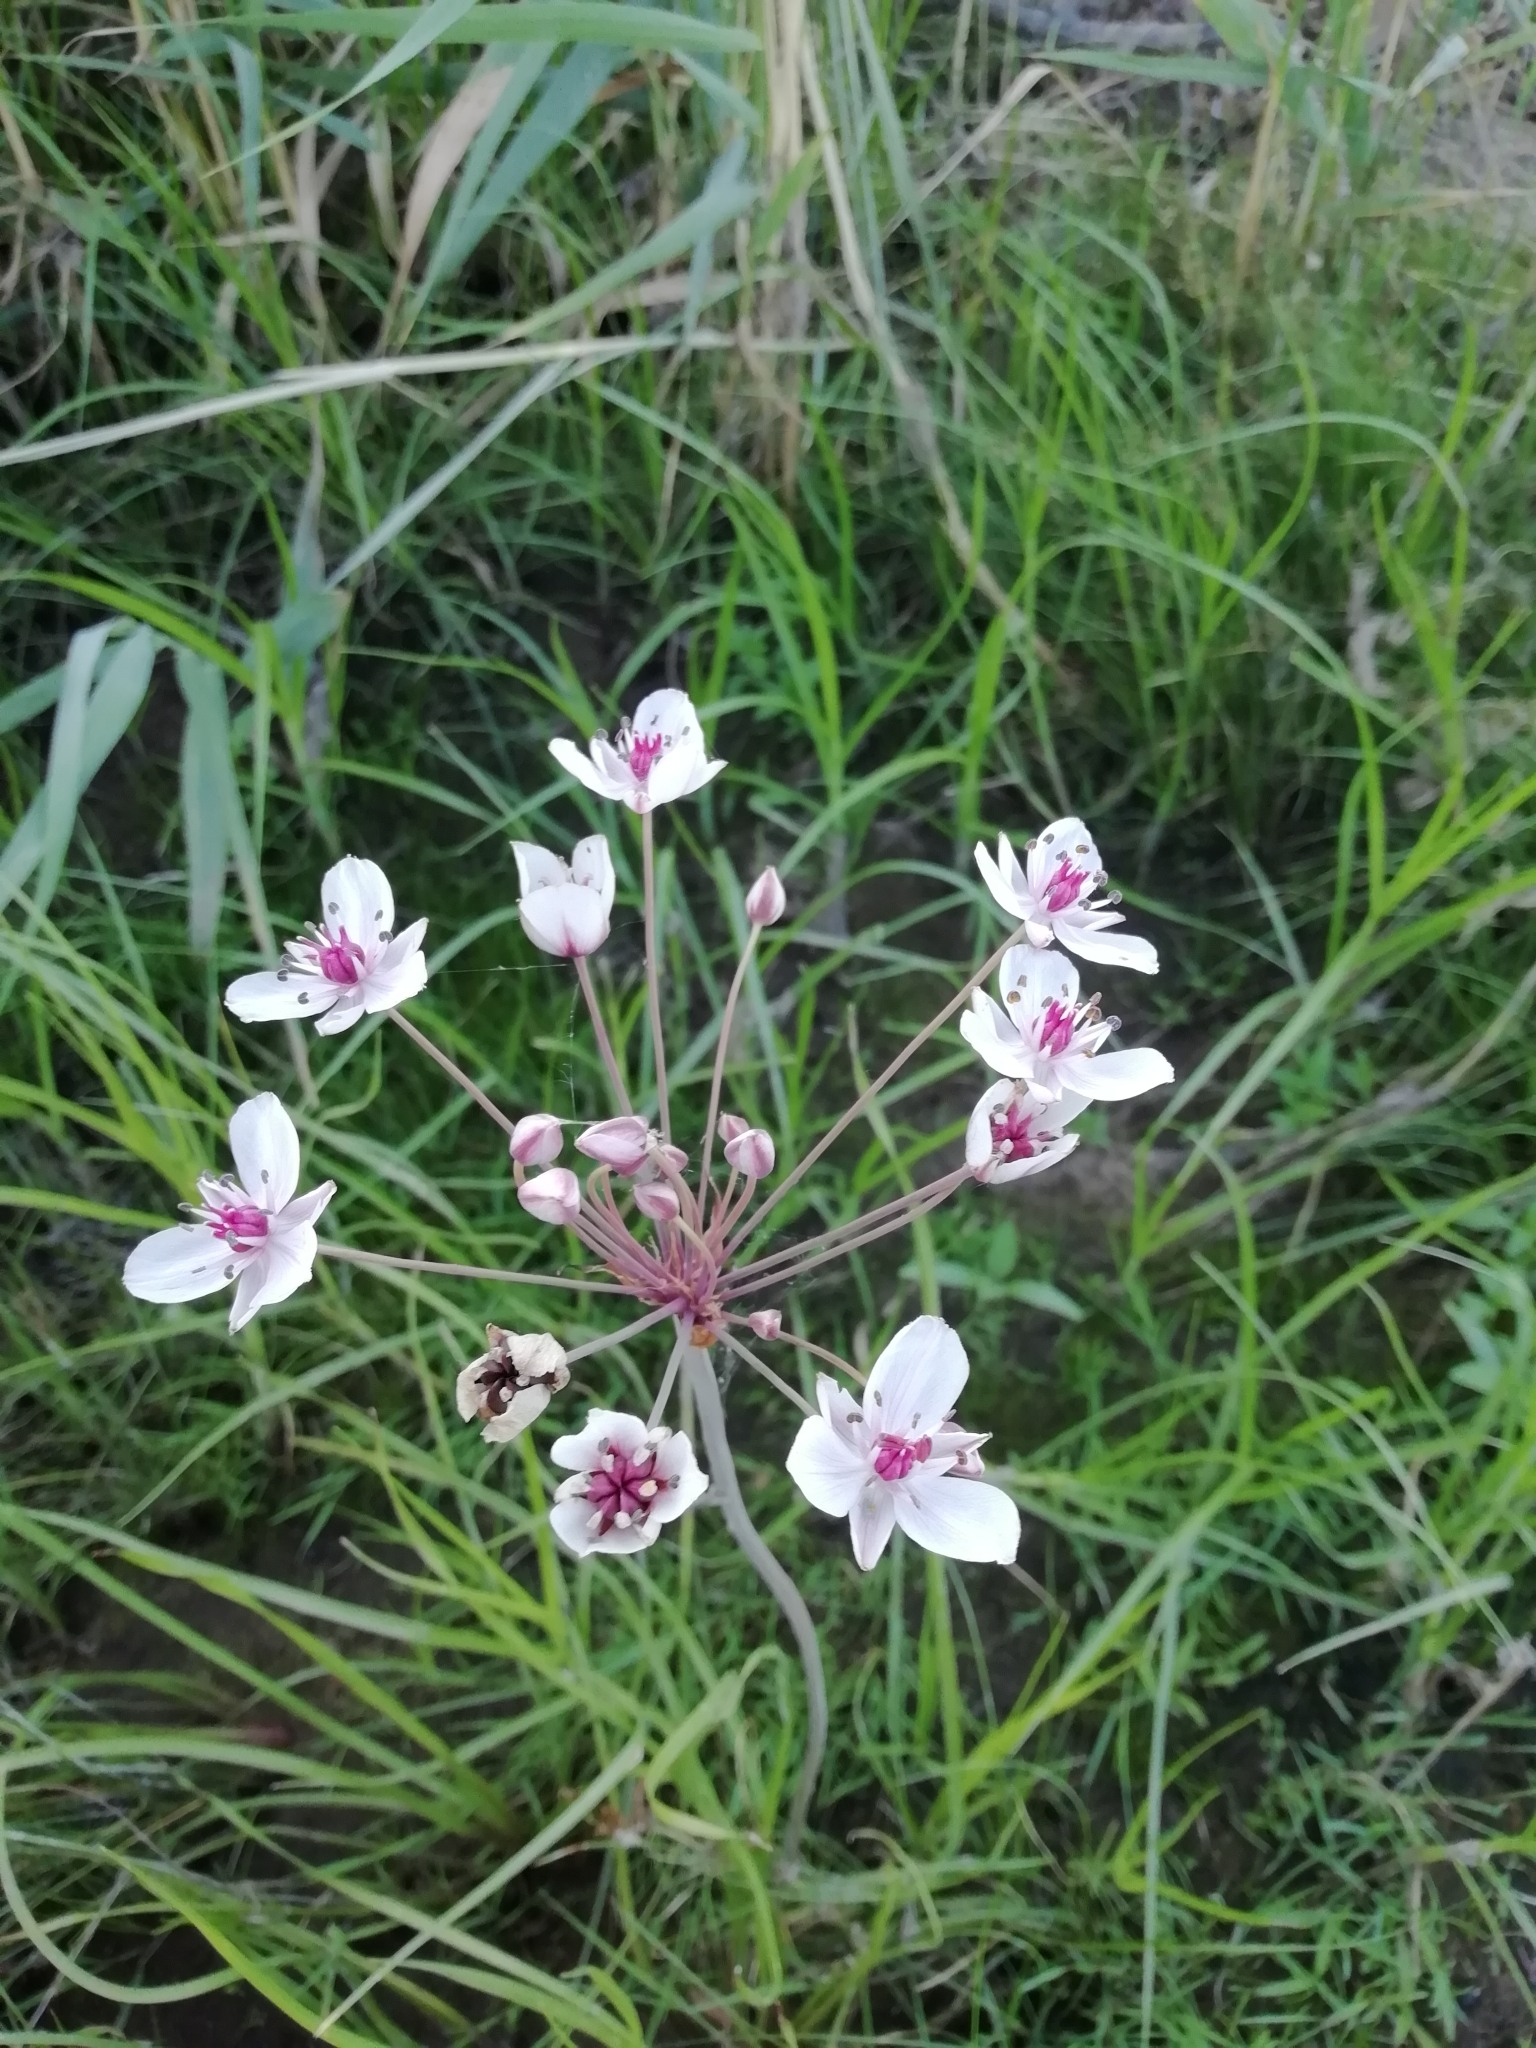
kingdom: Plantae
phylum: Tracheophyta
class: Liliopsida
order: Alismatales
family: Butomaceae
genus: Butomus
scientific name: Butomus umbellatus
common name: Flowering-rush
